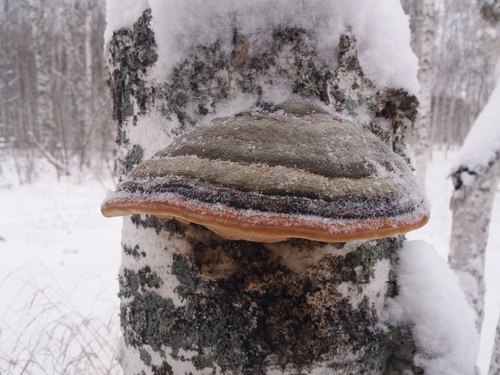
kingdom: Fungi
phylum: Basidiomycota
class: Agaricomycetes
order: Polyporales
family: Fomitopsidaceae
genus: Fomitopsis
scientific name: Fomitopsis pinicola
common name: Red-belted bracket
